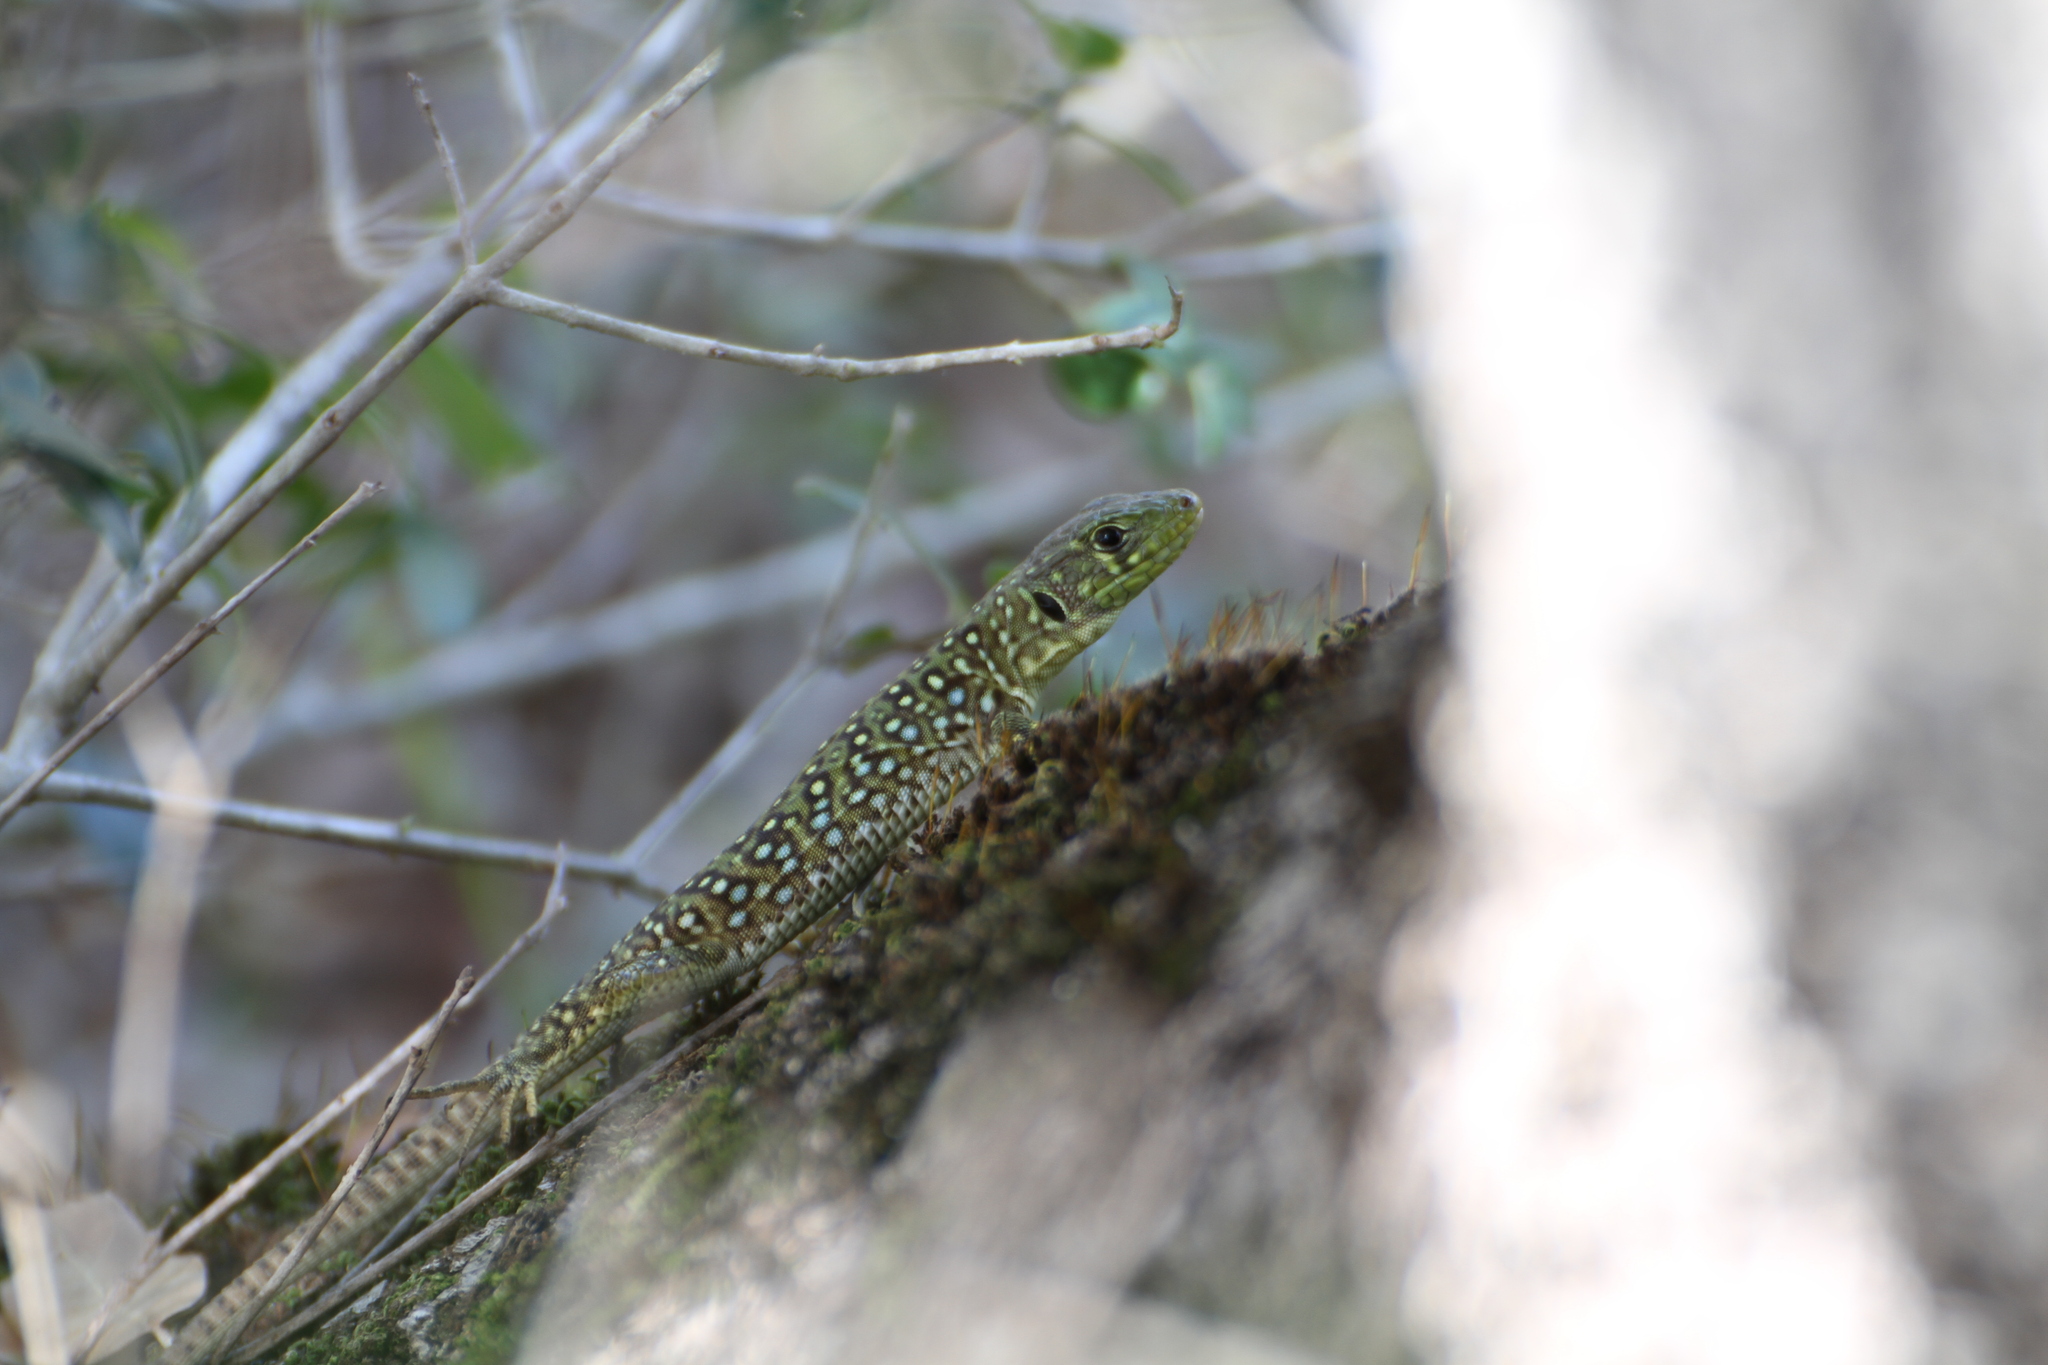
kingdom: Animalia
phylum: Chordata
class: Squamata
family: Lacertidae
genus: Timon
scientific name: Timon lepidus
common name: Ocellated lizard
